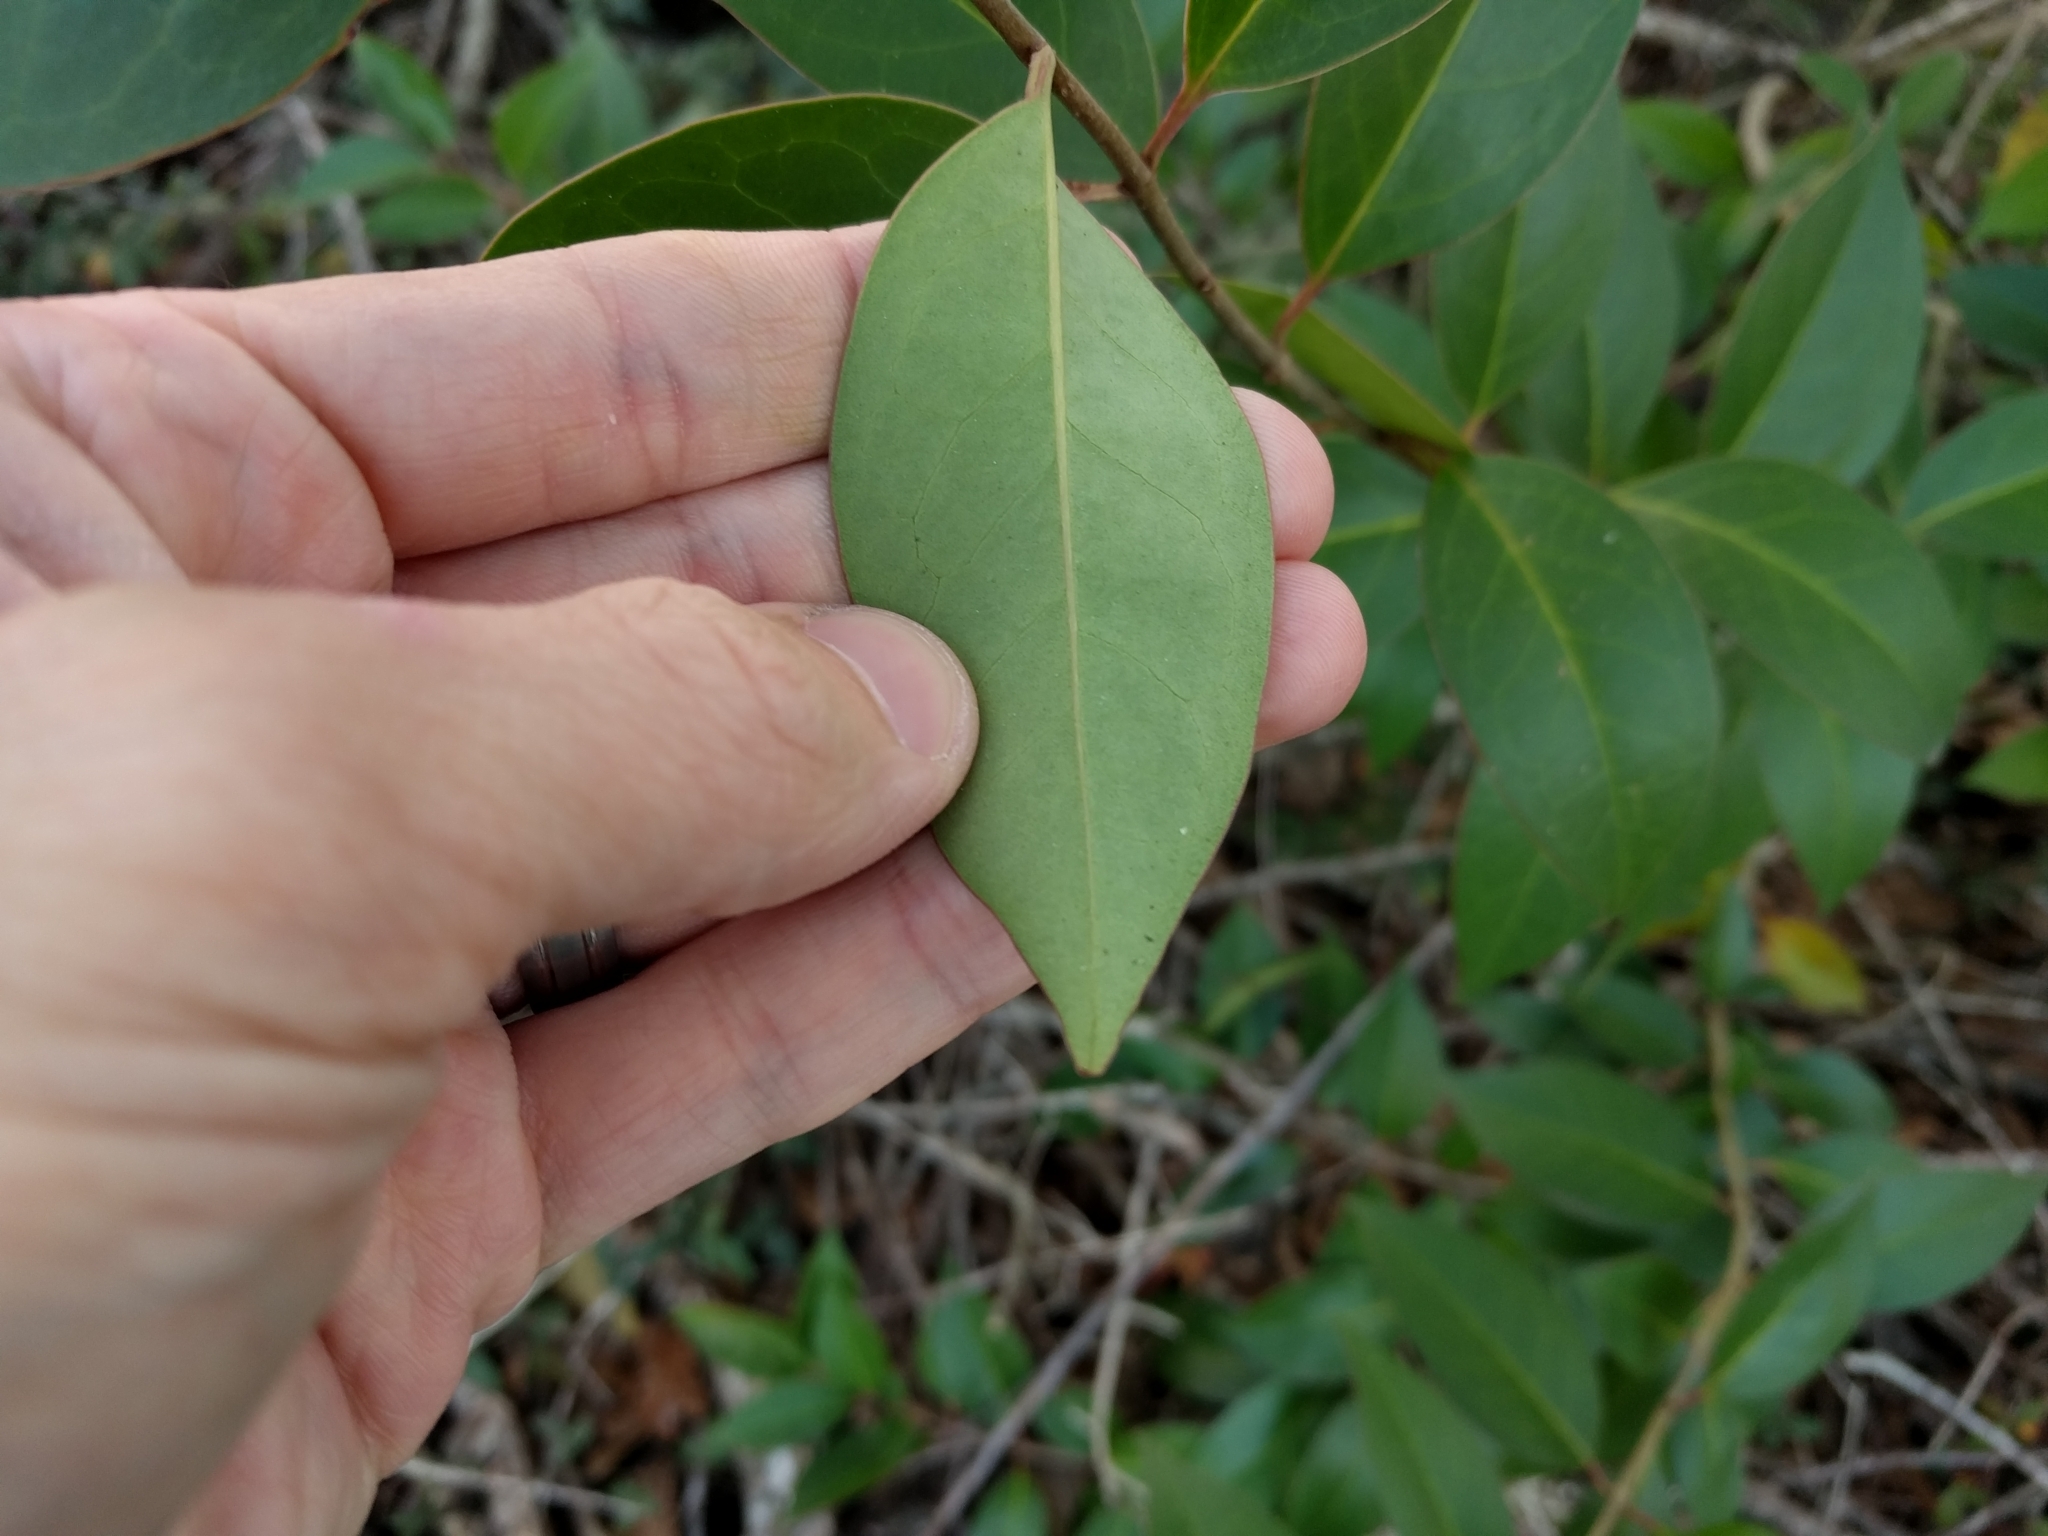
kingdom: Plantae
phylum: Tracheophyta
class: Magnoliopsida
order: Lamiales
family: Oleaceae
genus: Ligustrum
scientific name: Ligustrum lucidum
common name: Glossy privet
